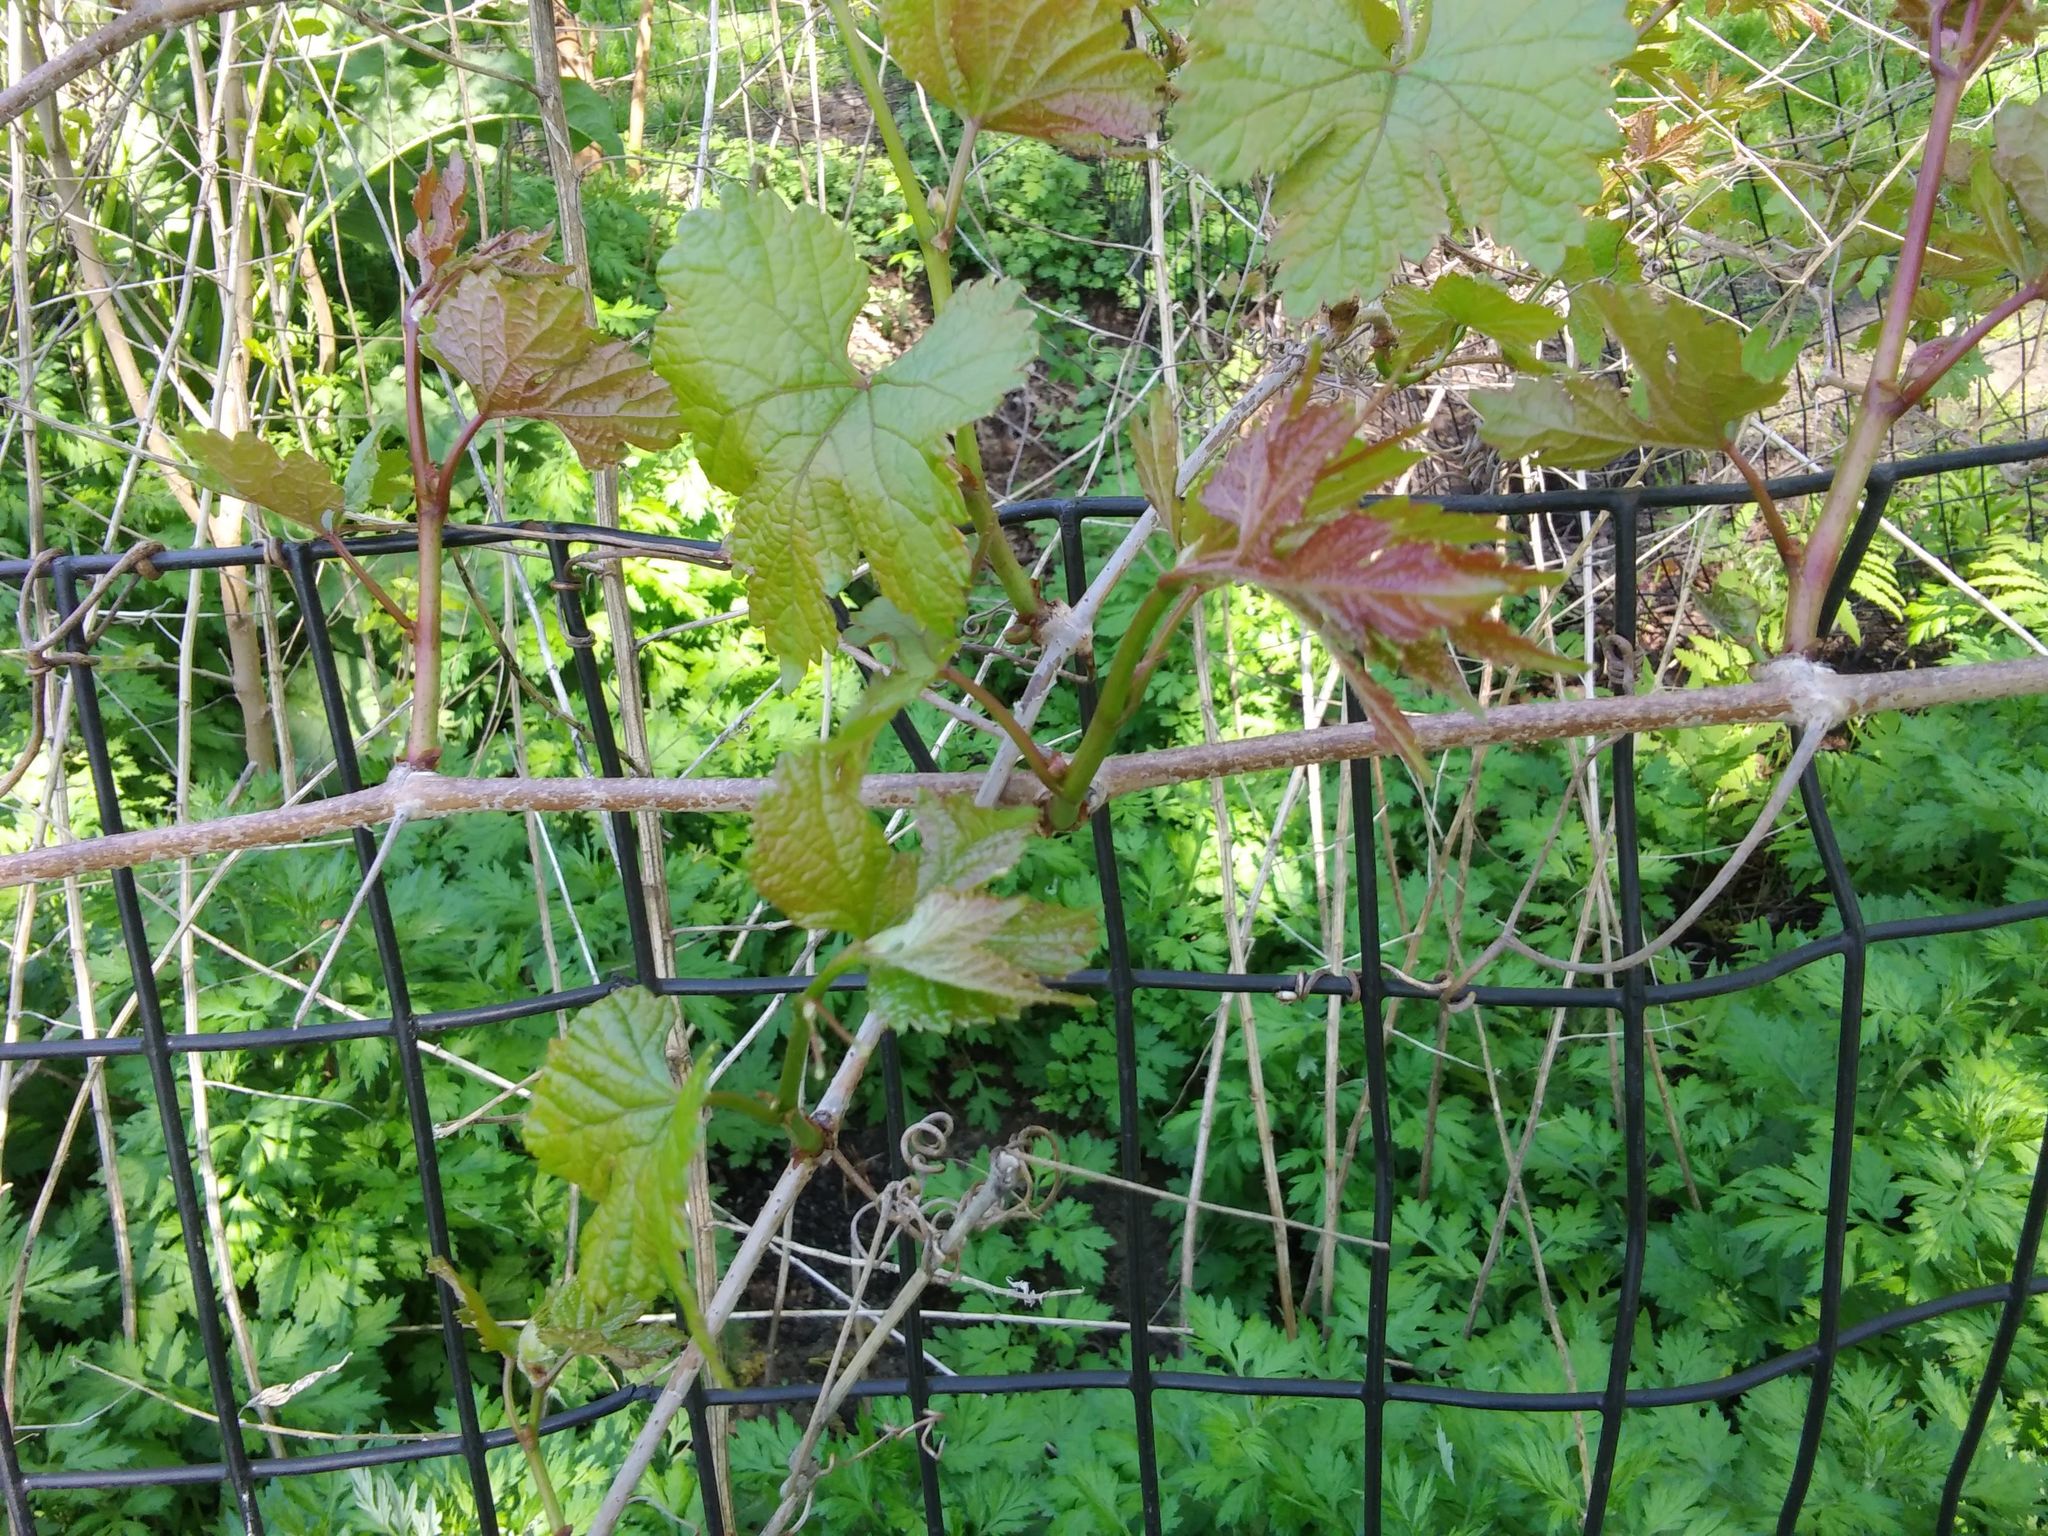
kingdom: Plantae
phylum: Tracheophyta
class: Magnoliopsida
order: Vitales
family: Vitaceae
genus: Ampelopsis
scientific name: Ampelopsis glandulosa
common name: Amur peppervine
